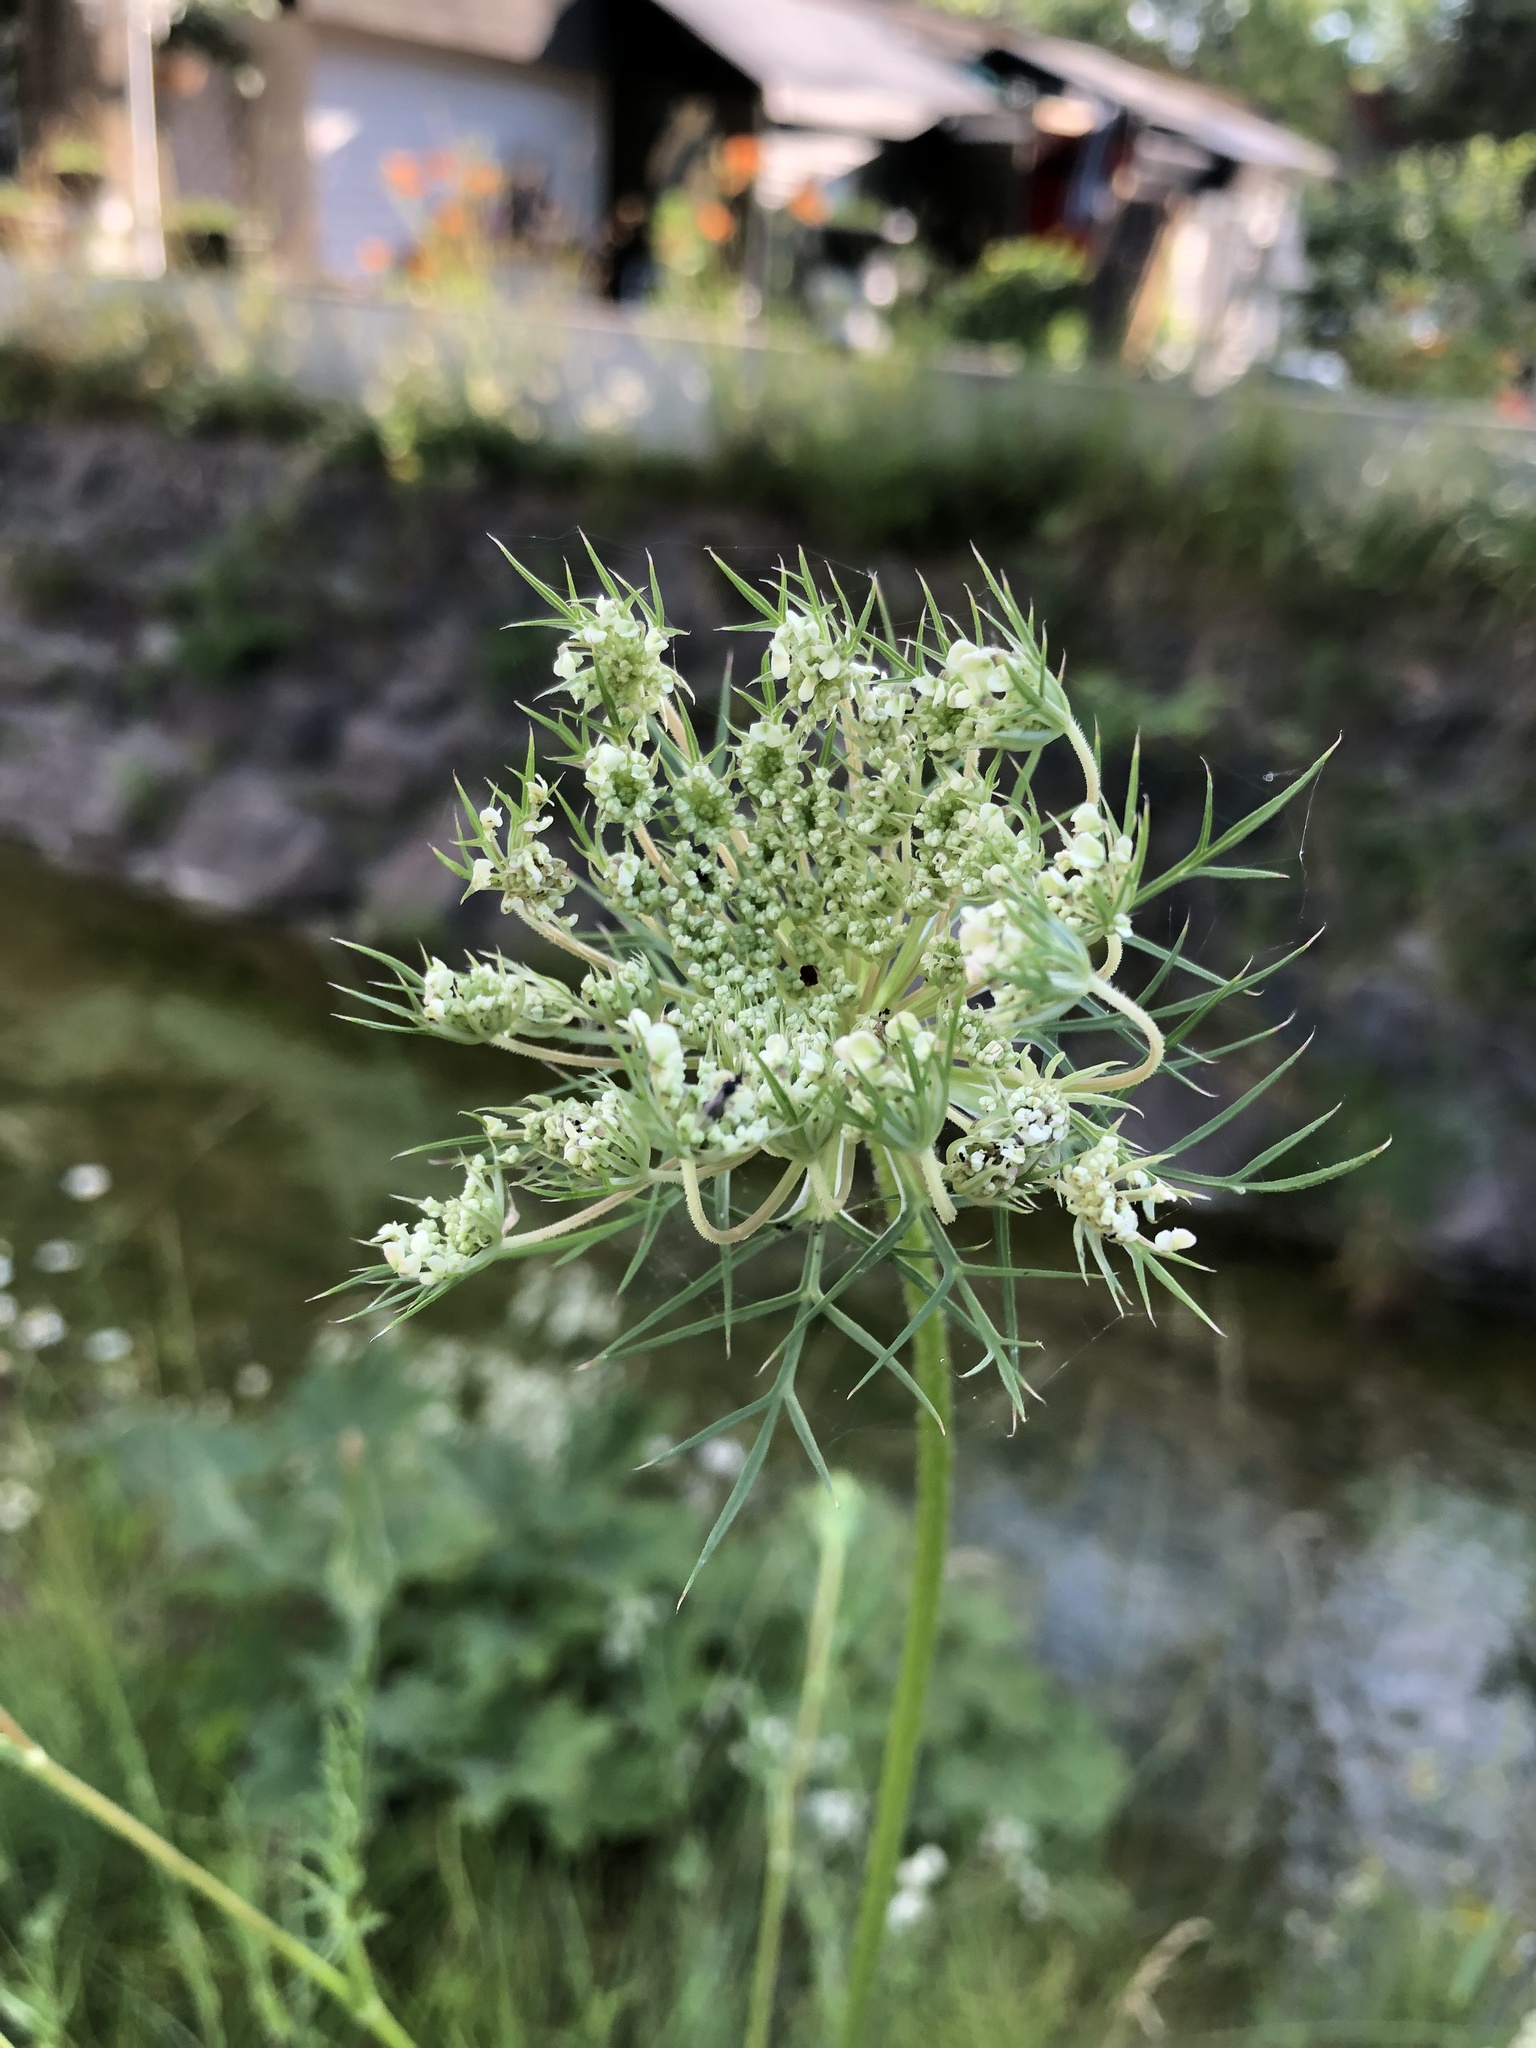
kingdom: Plantae
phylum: Tracheophyta
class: Magnoliopsida
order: Apiales
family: Apiaceae
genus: Daucus
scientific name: Daucus carota
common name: Wild carrot
